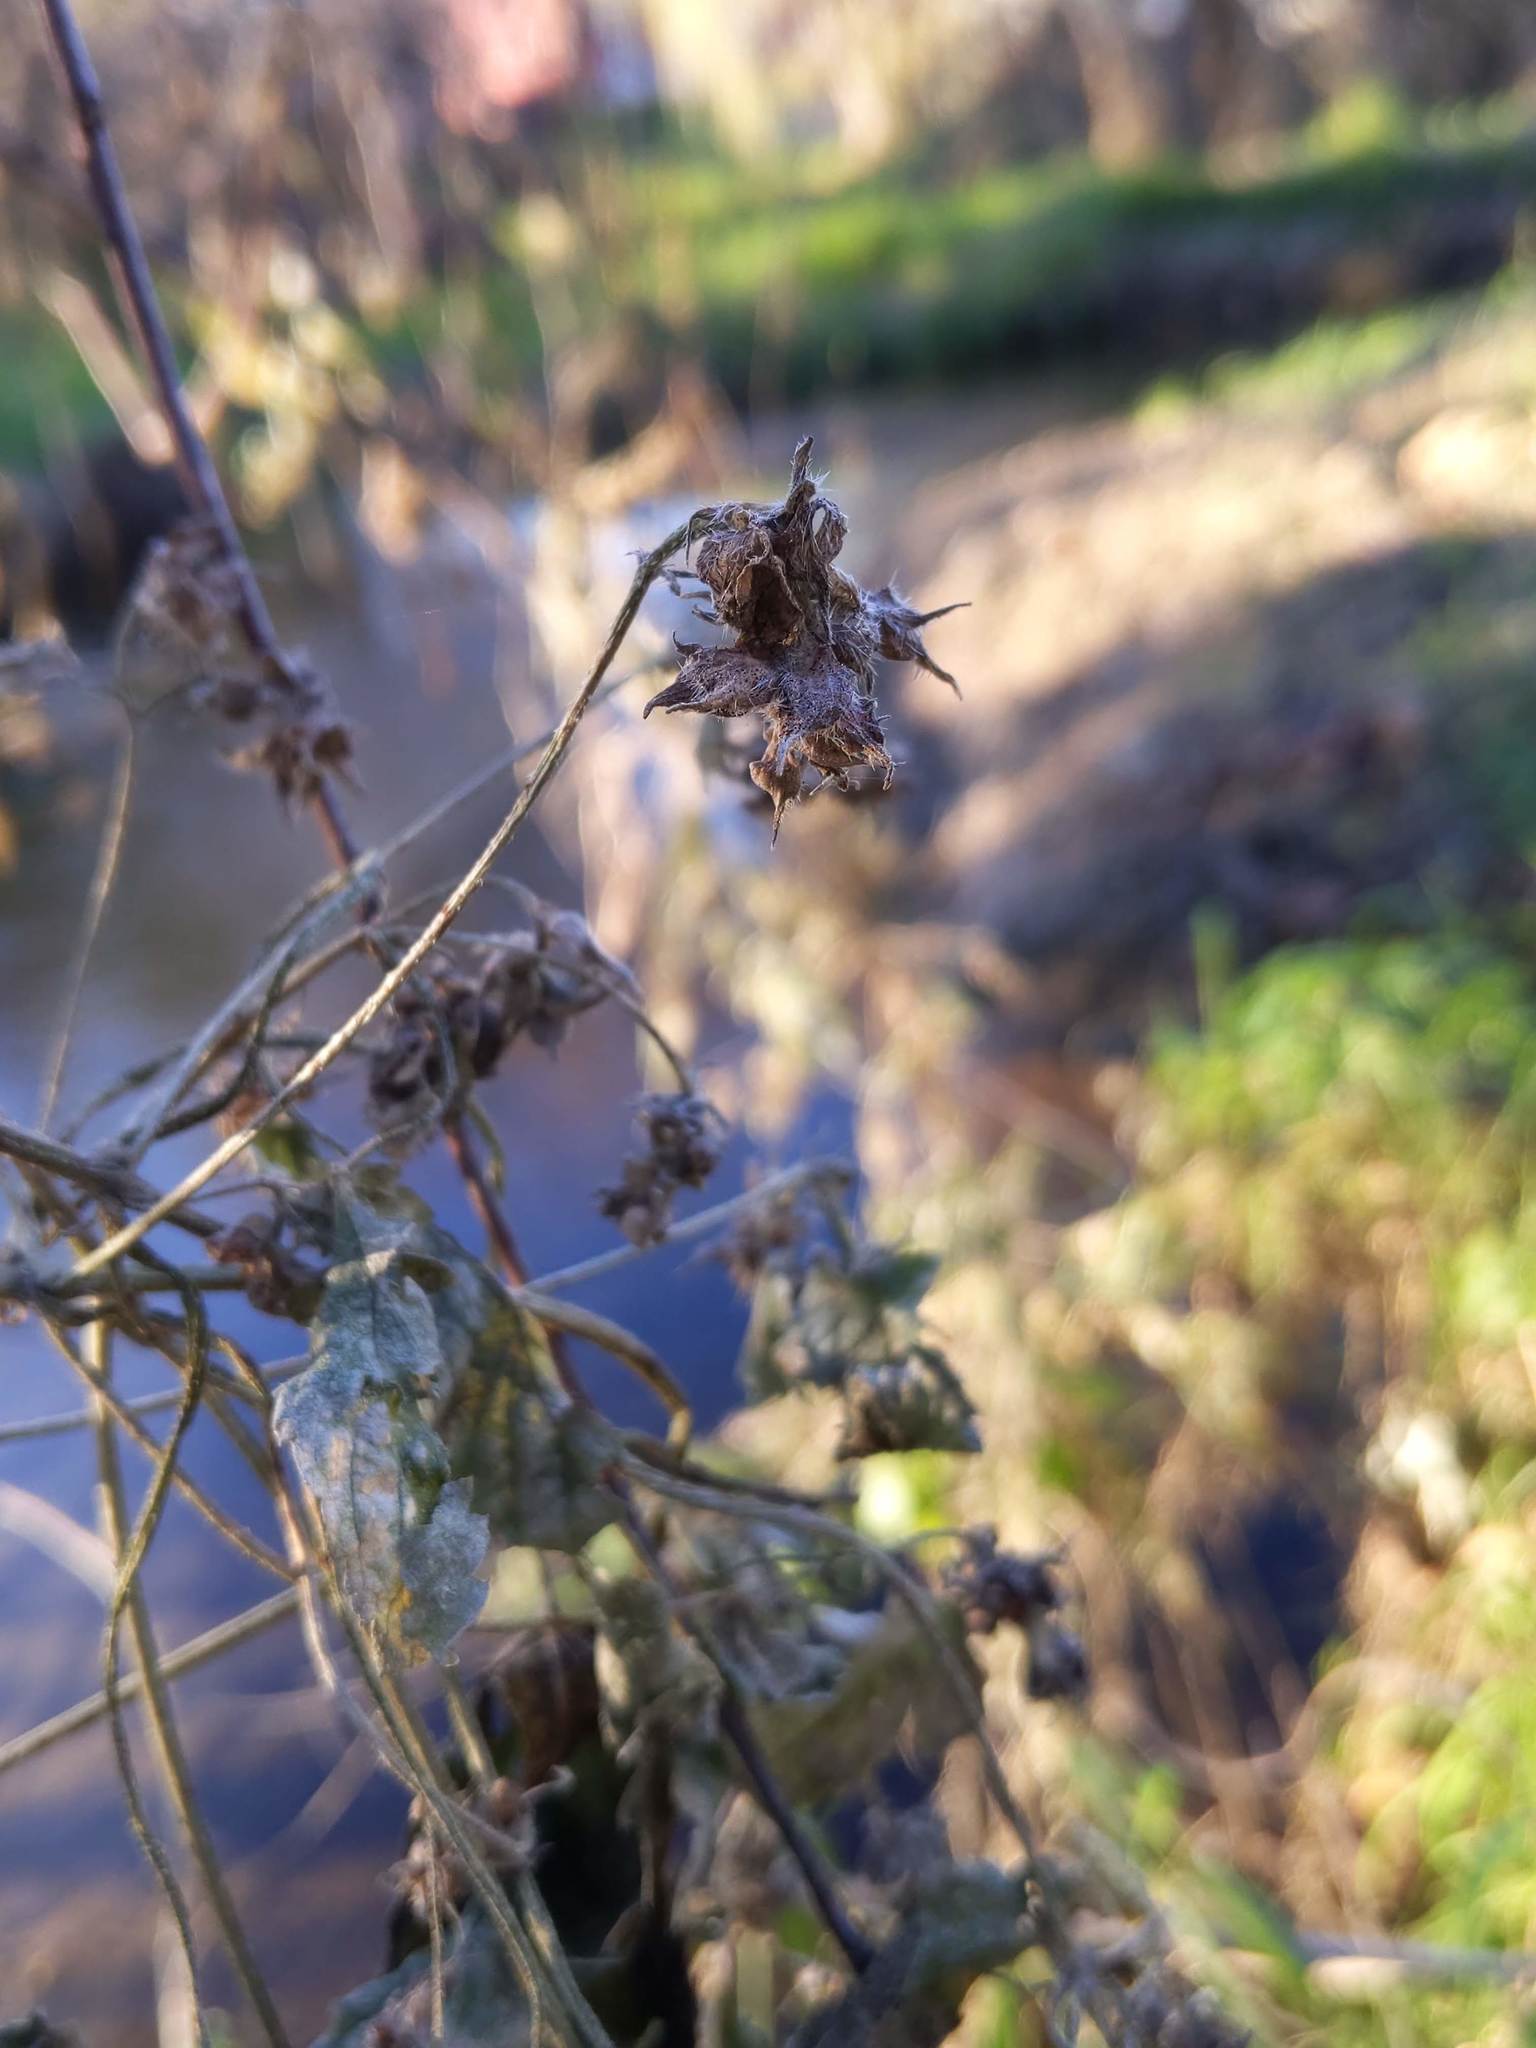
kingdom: Plantae
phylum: Tracheophyta
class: Magnoliopsida
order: Rosales
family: Cannabaceae
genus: Humulus
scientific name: Humulus scandens
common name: Japanese hop
